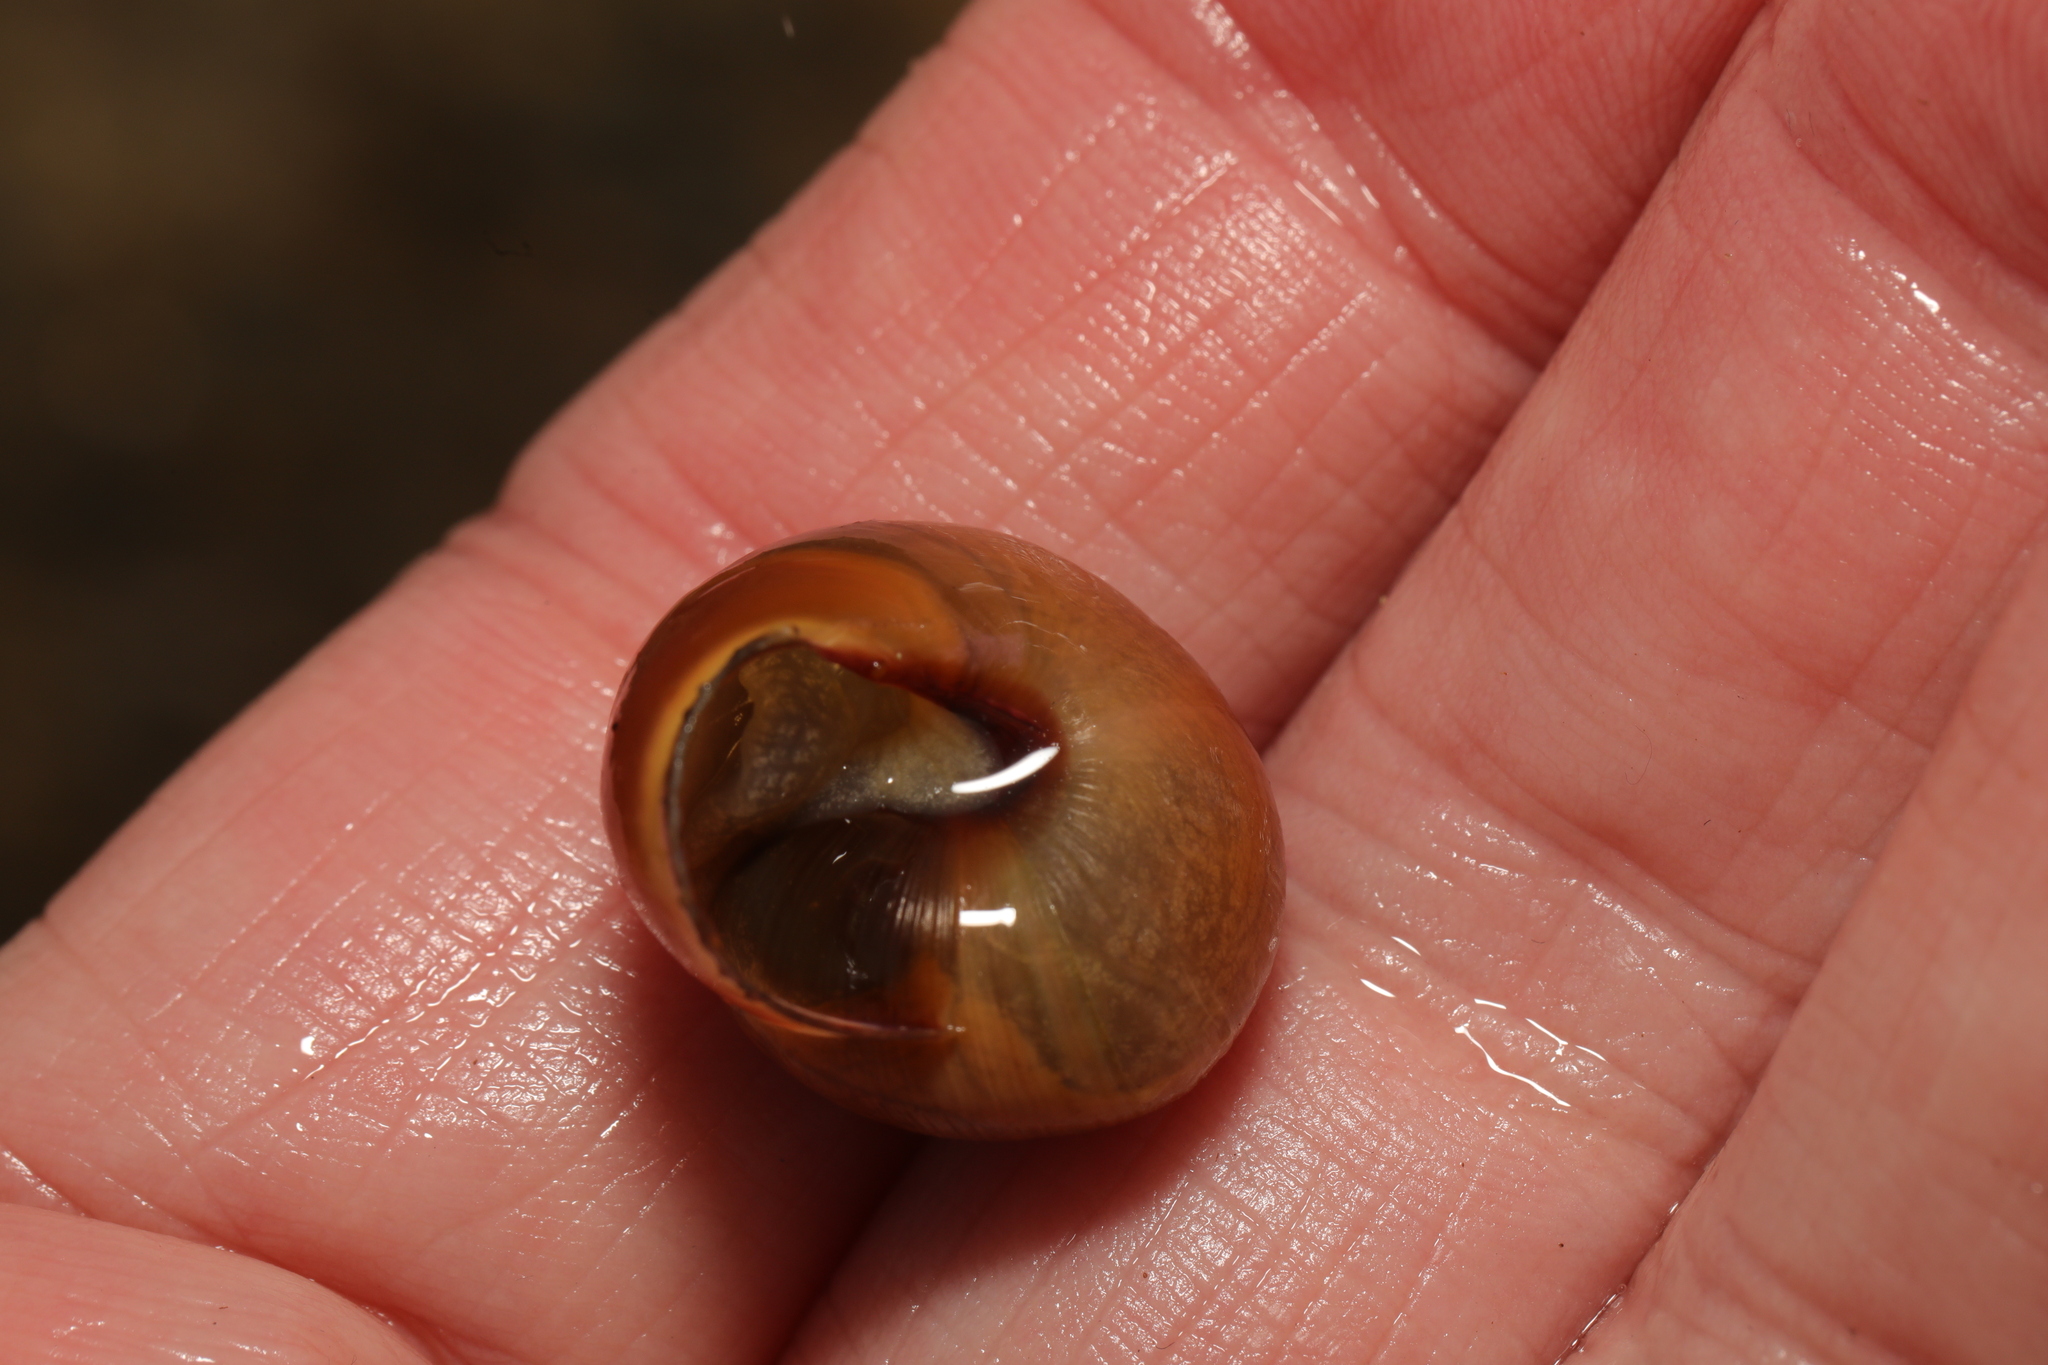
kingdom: Animalia
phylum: Mollusca
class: Gastropoda
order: Stylommatophora
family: Helicidae
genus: Cepaea
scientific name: Cepaea nemoralis
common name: Grovesnail
